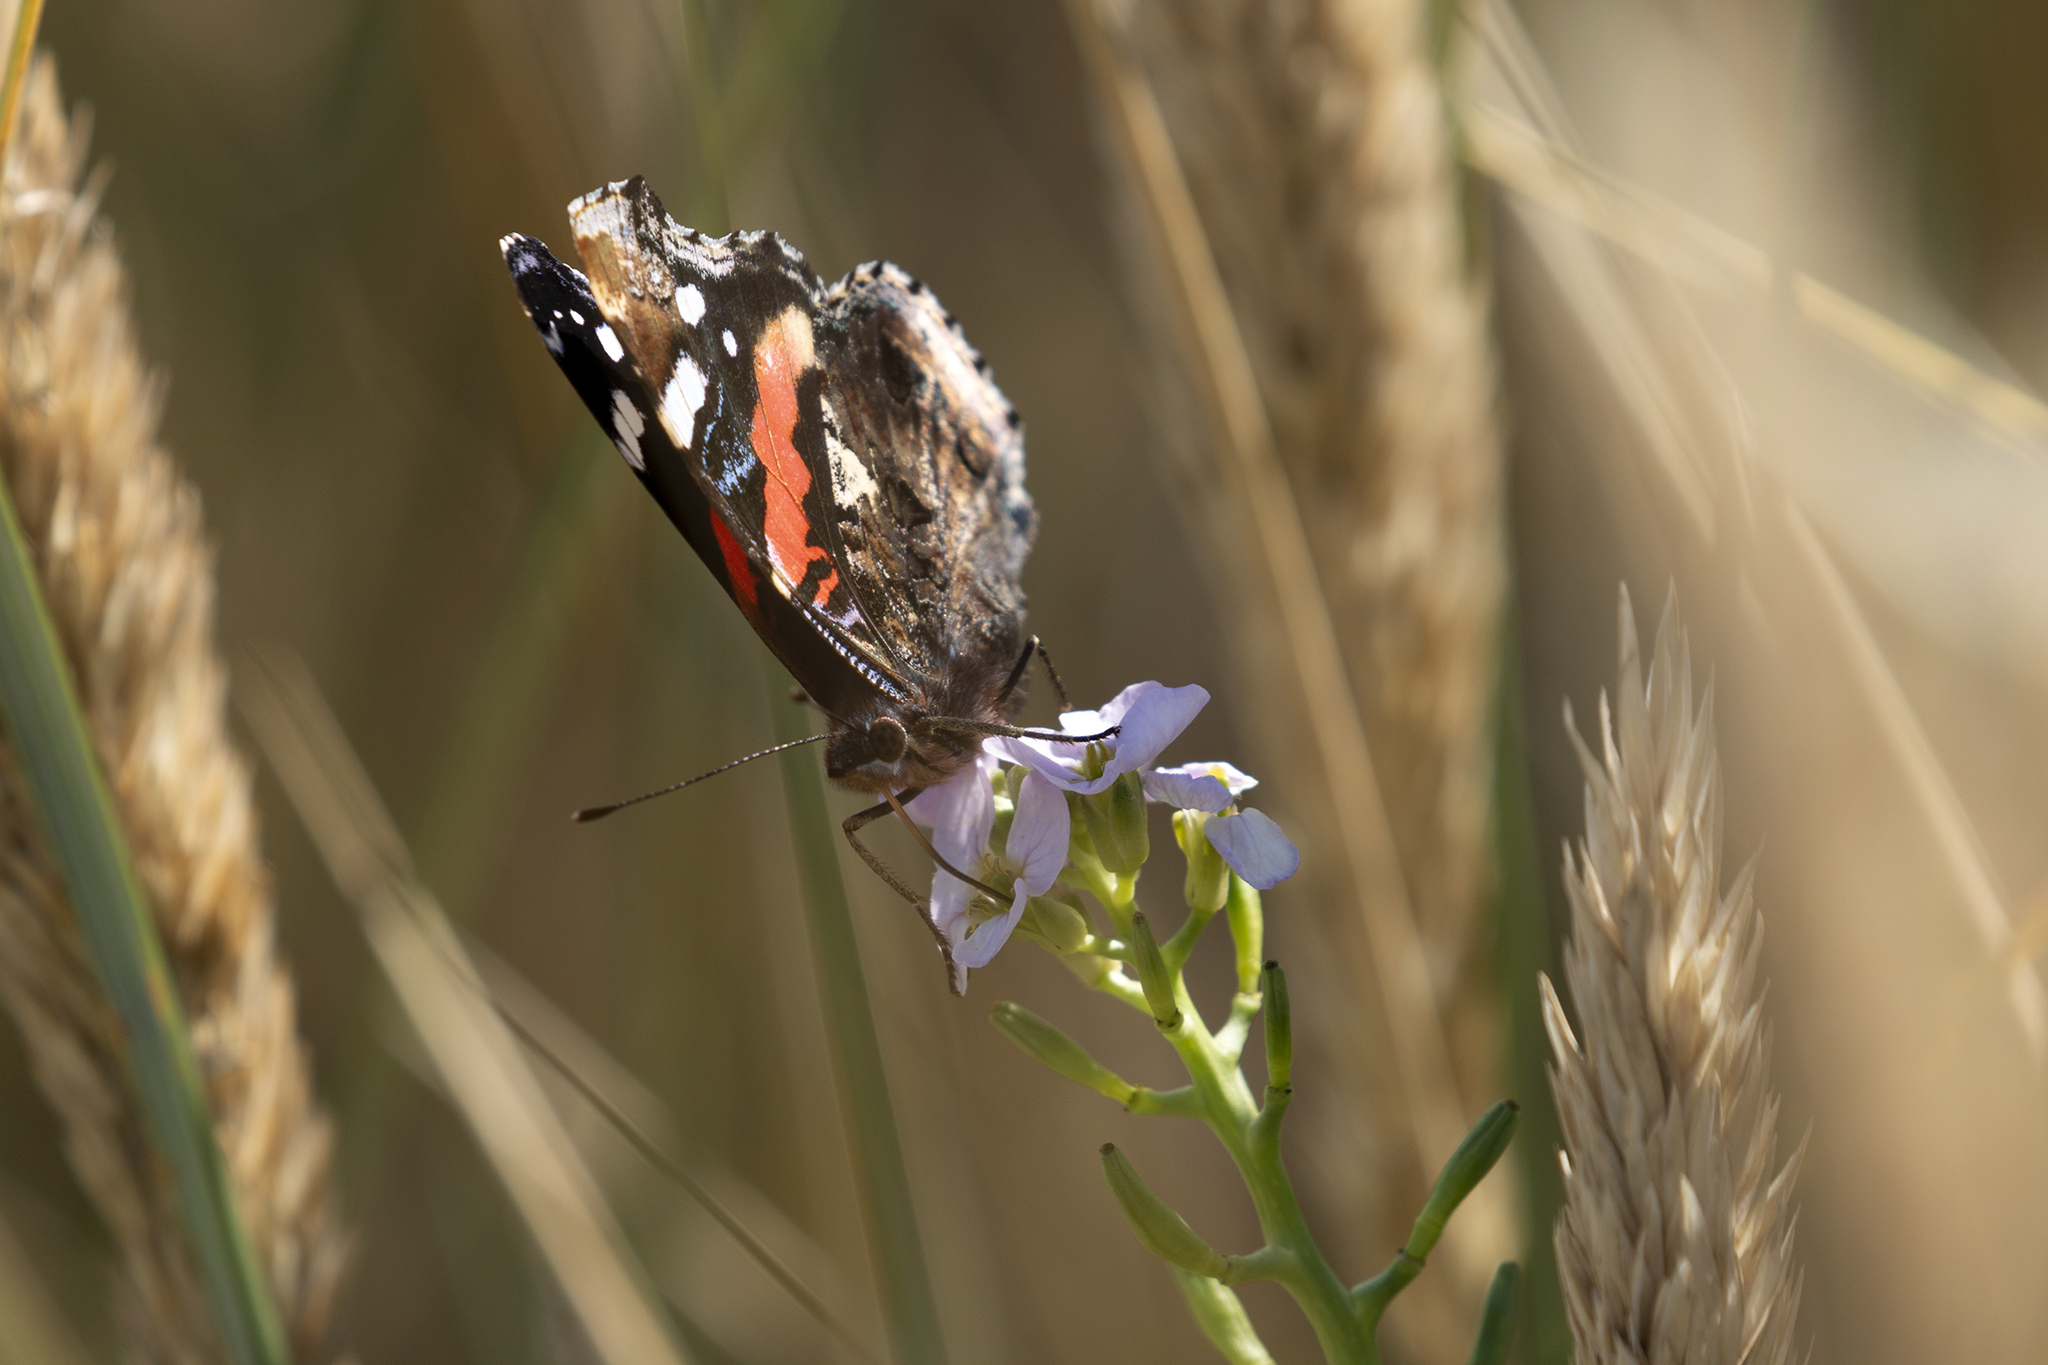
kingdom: Animalia
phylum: Arthropoda
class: Insecta
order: Lepidoptera
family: Nymphalidae
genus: Vanessa
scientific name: Vanessa atalanta
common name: Red admiral
